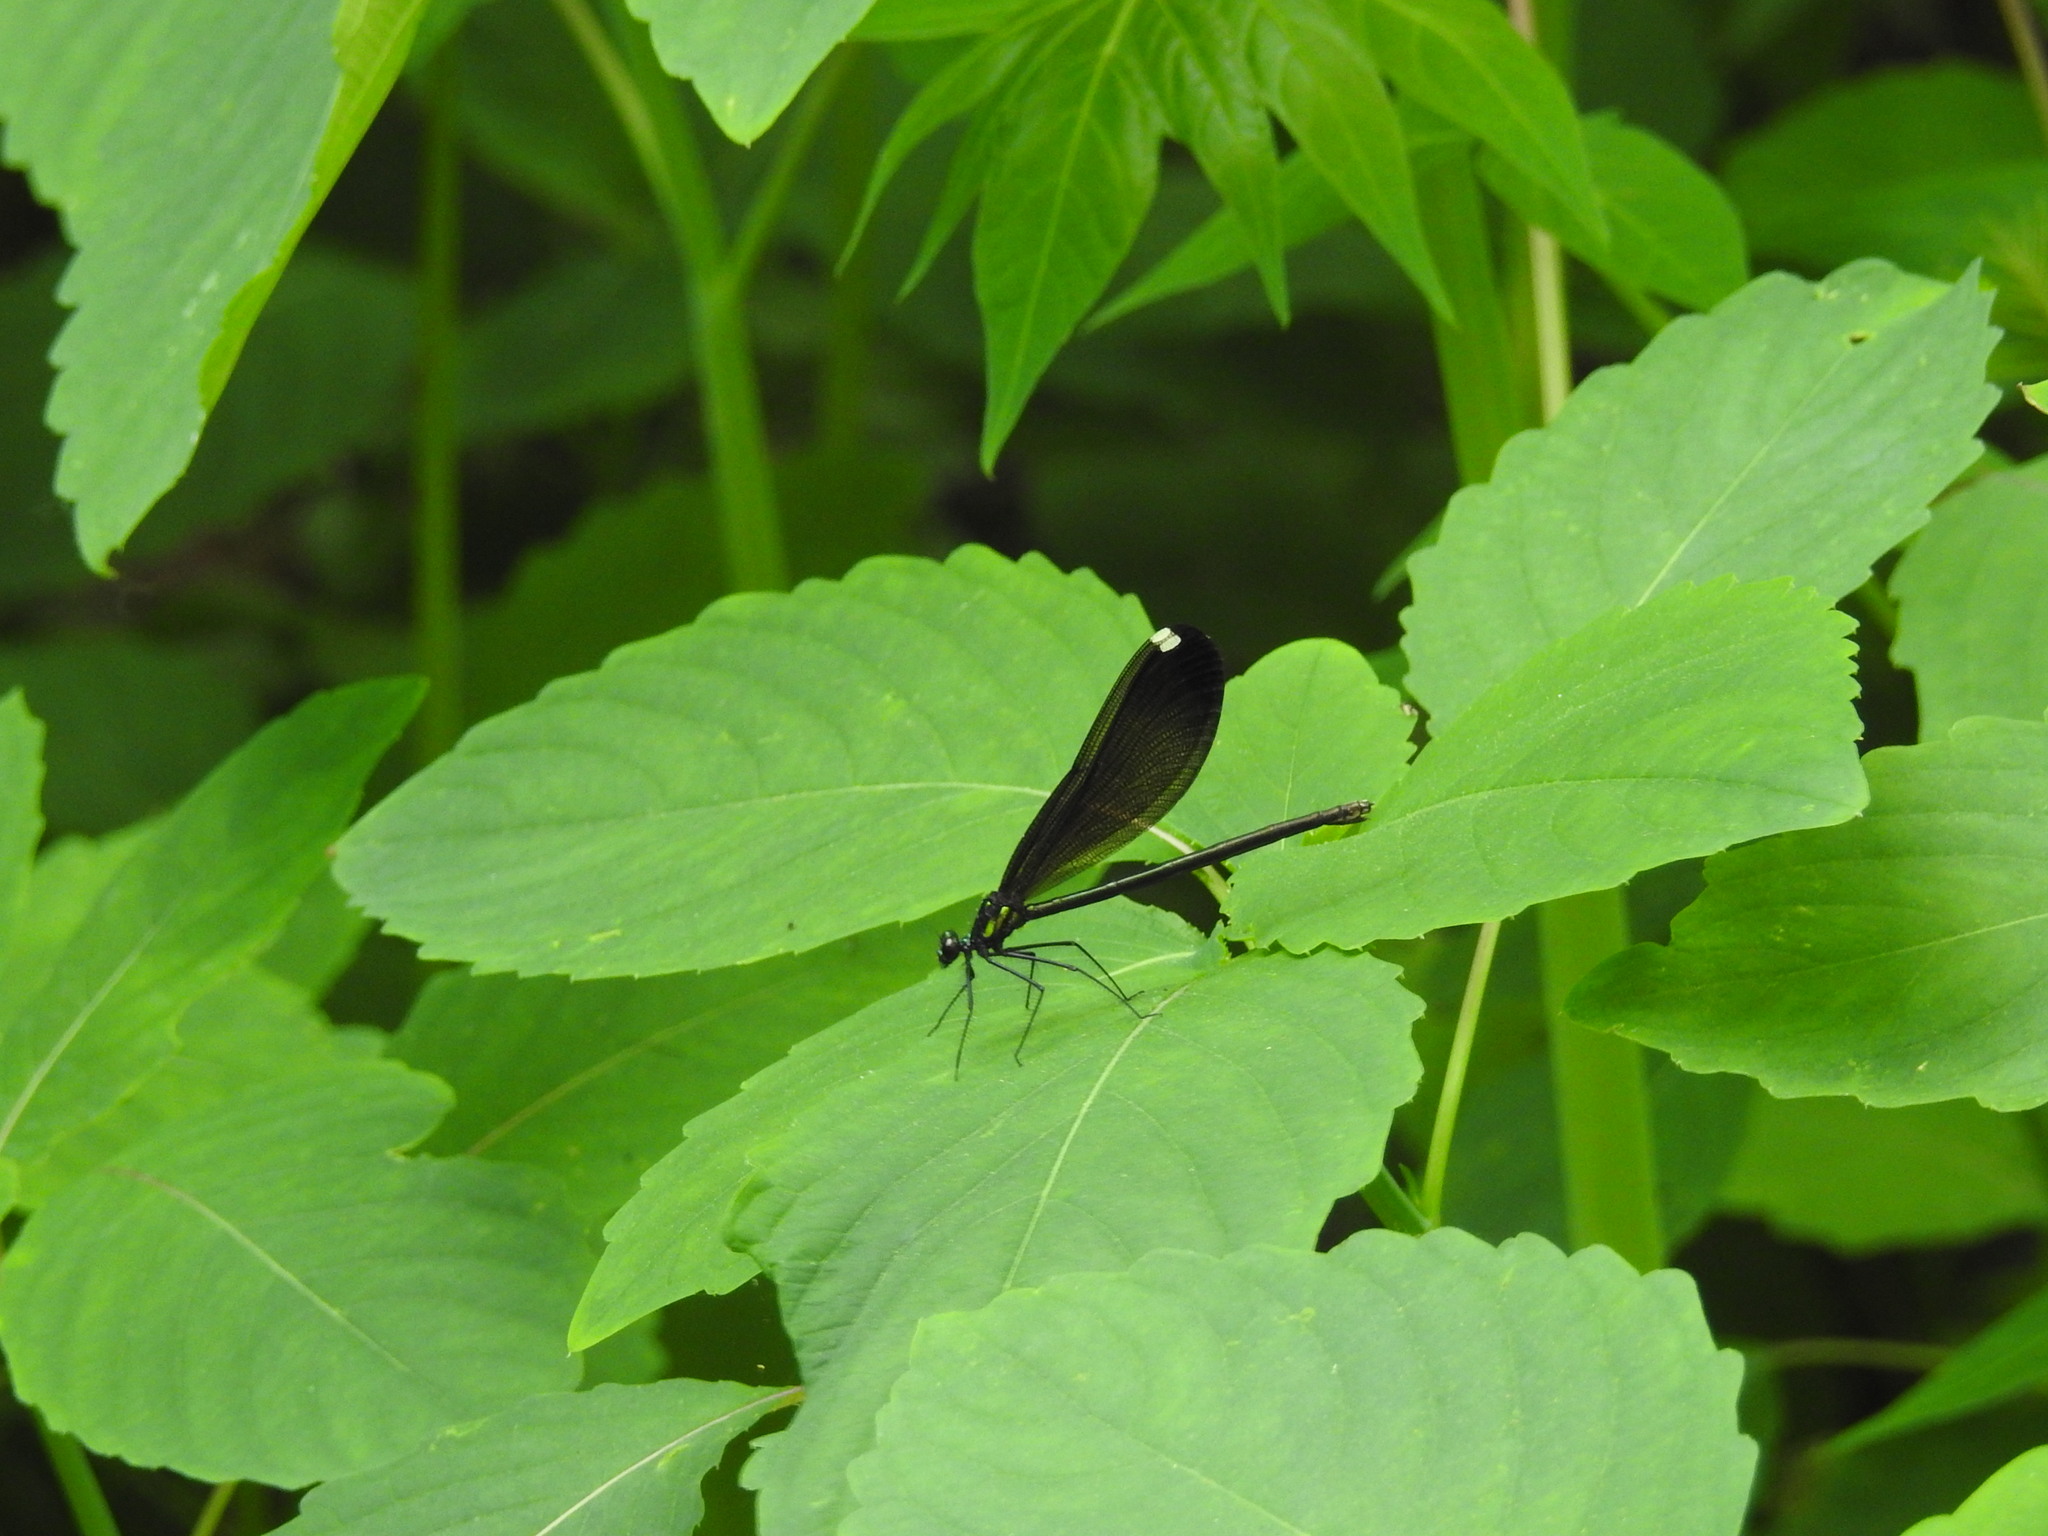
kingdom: Animalia
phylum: Arthropoda
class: Insecta
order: Odonata
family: Calopterygidae
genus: Calopteryx
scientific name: Calopteryx maculata
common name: Ebony jewelwing
